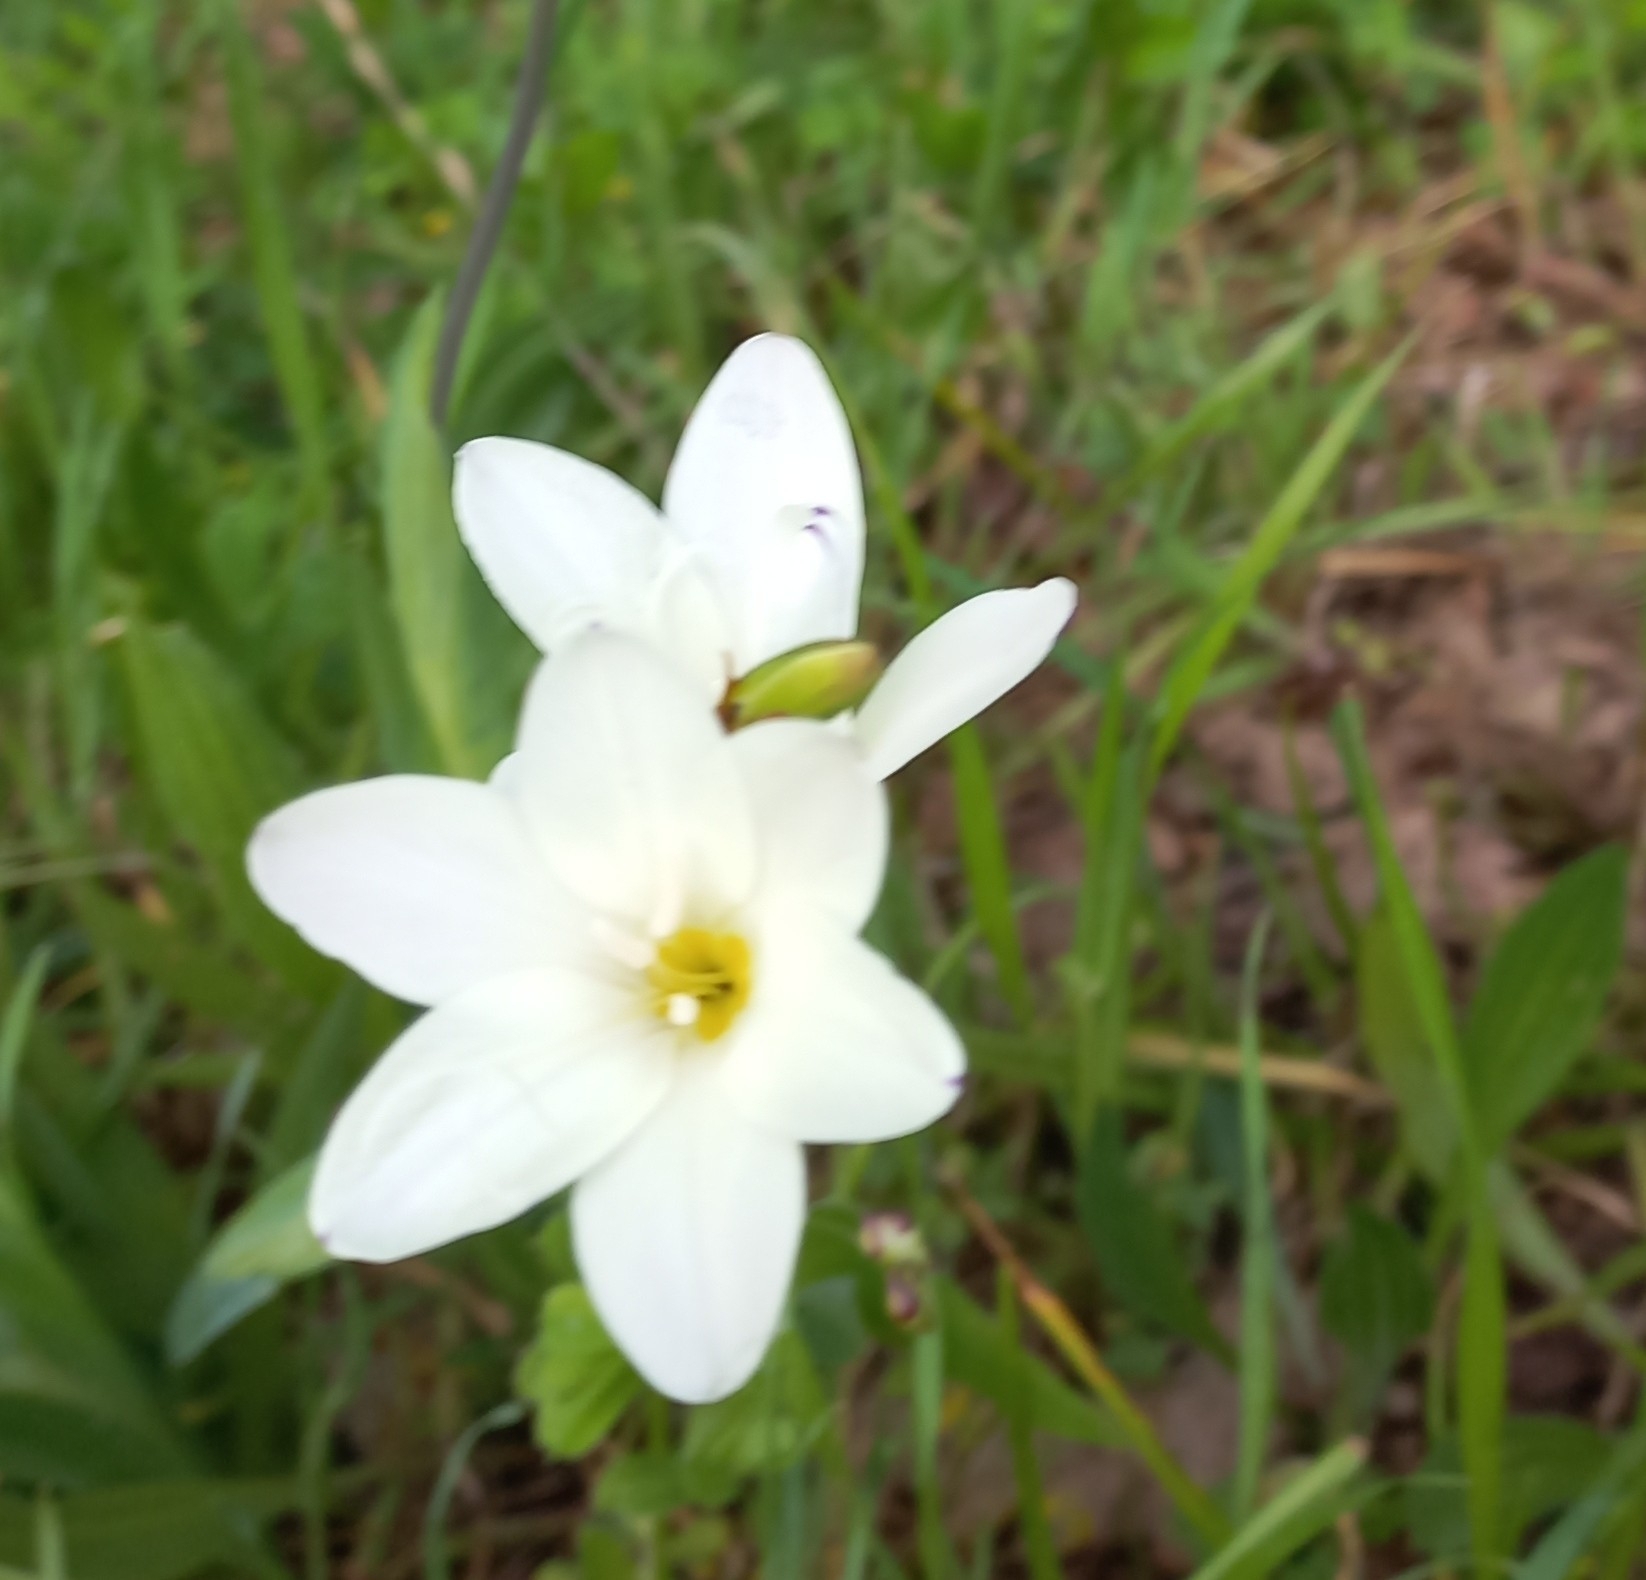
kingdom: Plantae
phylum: Tracheophyta
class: Liliopsida
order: Asparagales
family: Iridaceae
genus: Sparaxis
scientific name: Sparaxis grandiflora
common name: Plain harlequin-flower
